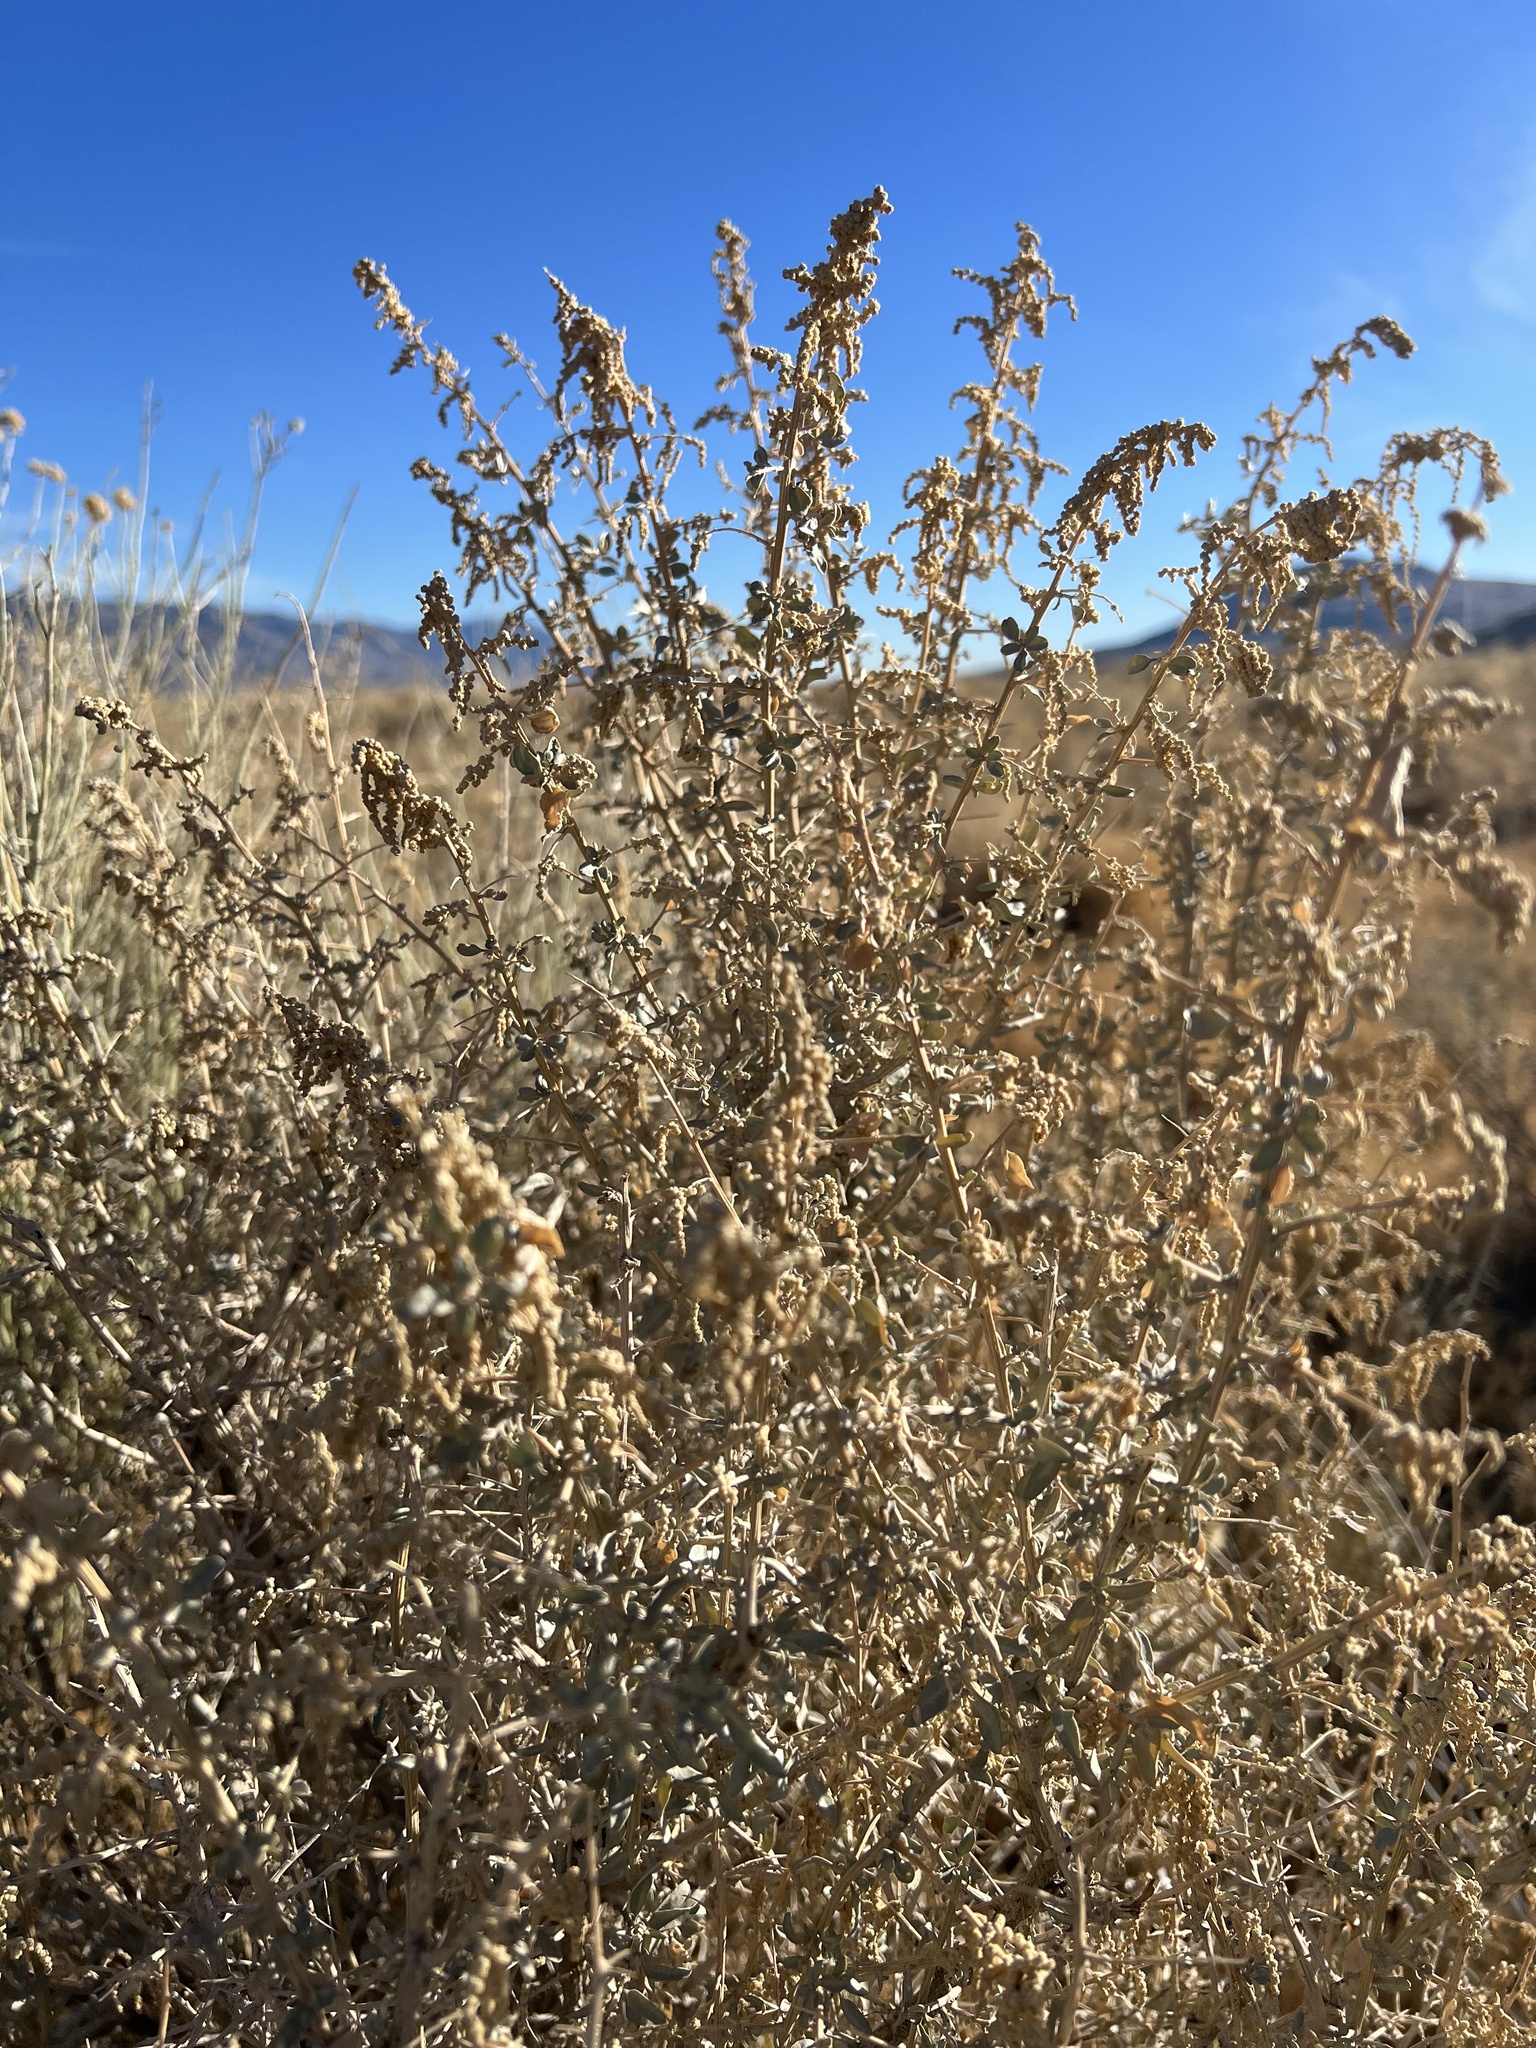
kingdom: Plantae
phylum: Tracheophyta
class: Magnoliopsida
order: Caryophyllales
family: Amaranthaceae
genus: Atriplex
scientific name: Atriplex torreyi
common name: Torrey's saltbush
